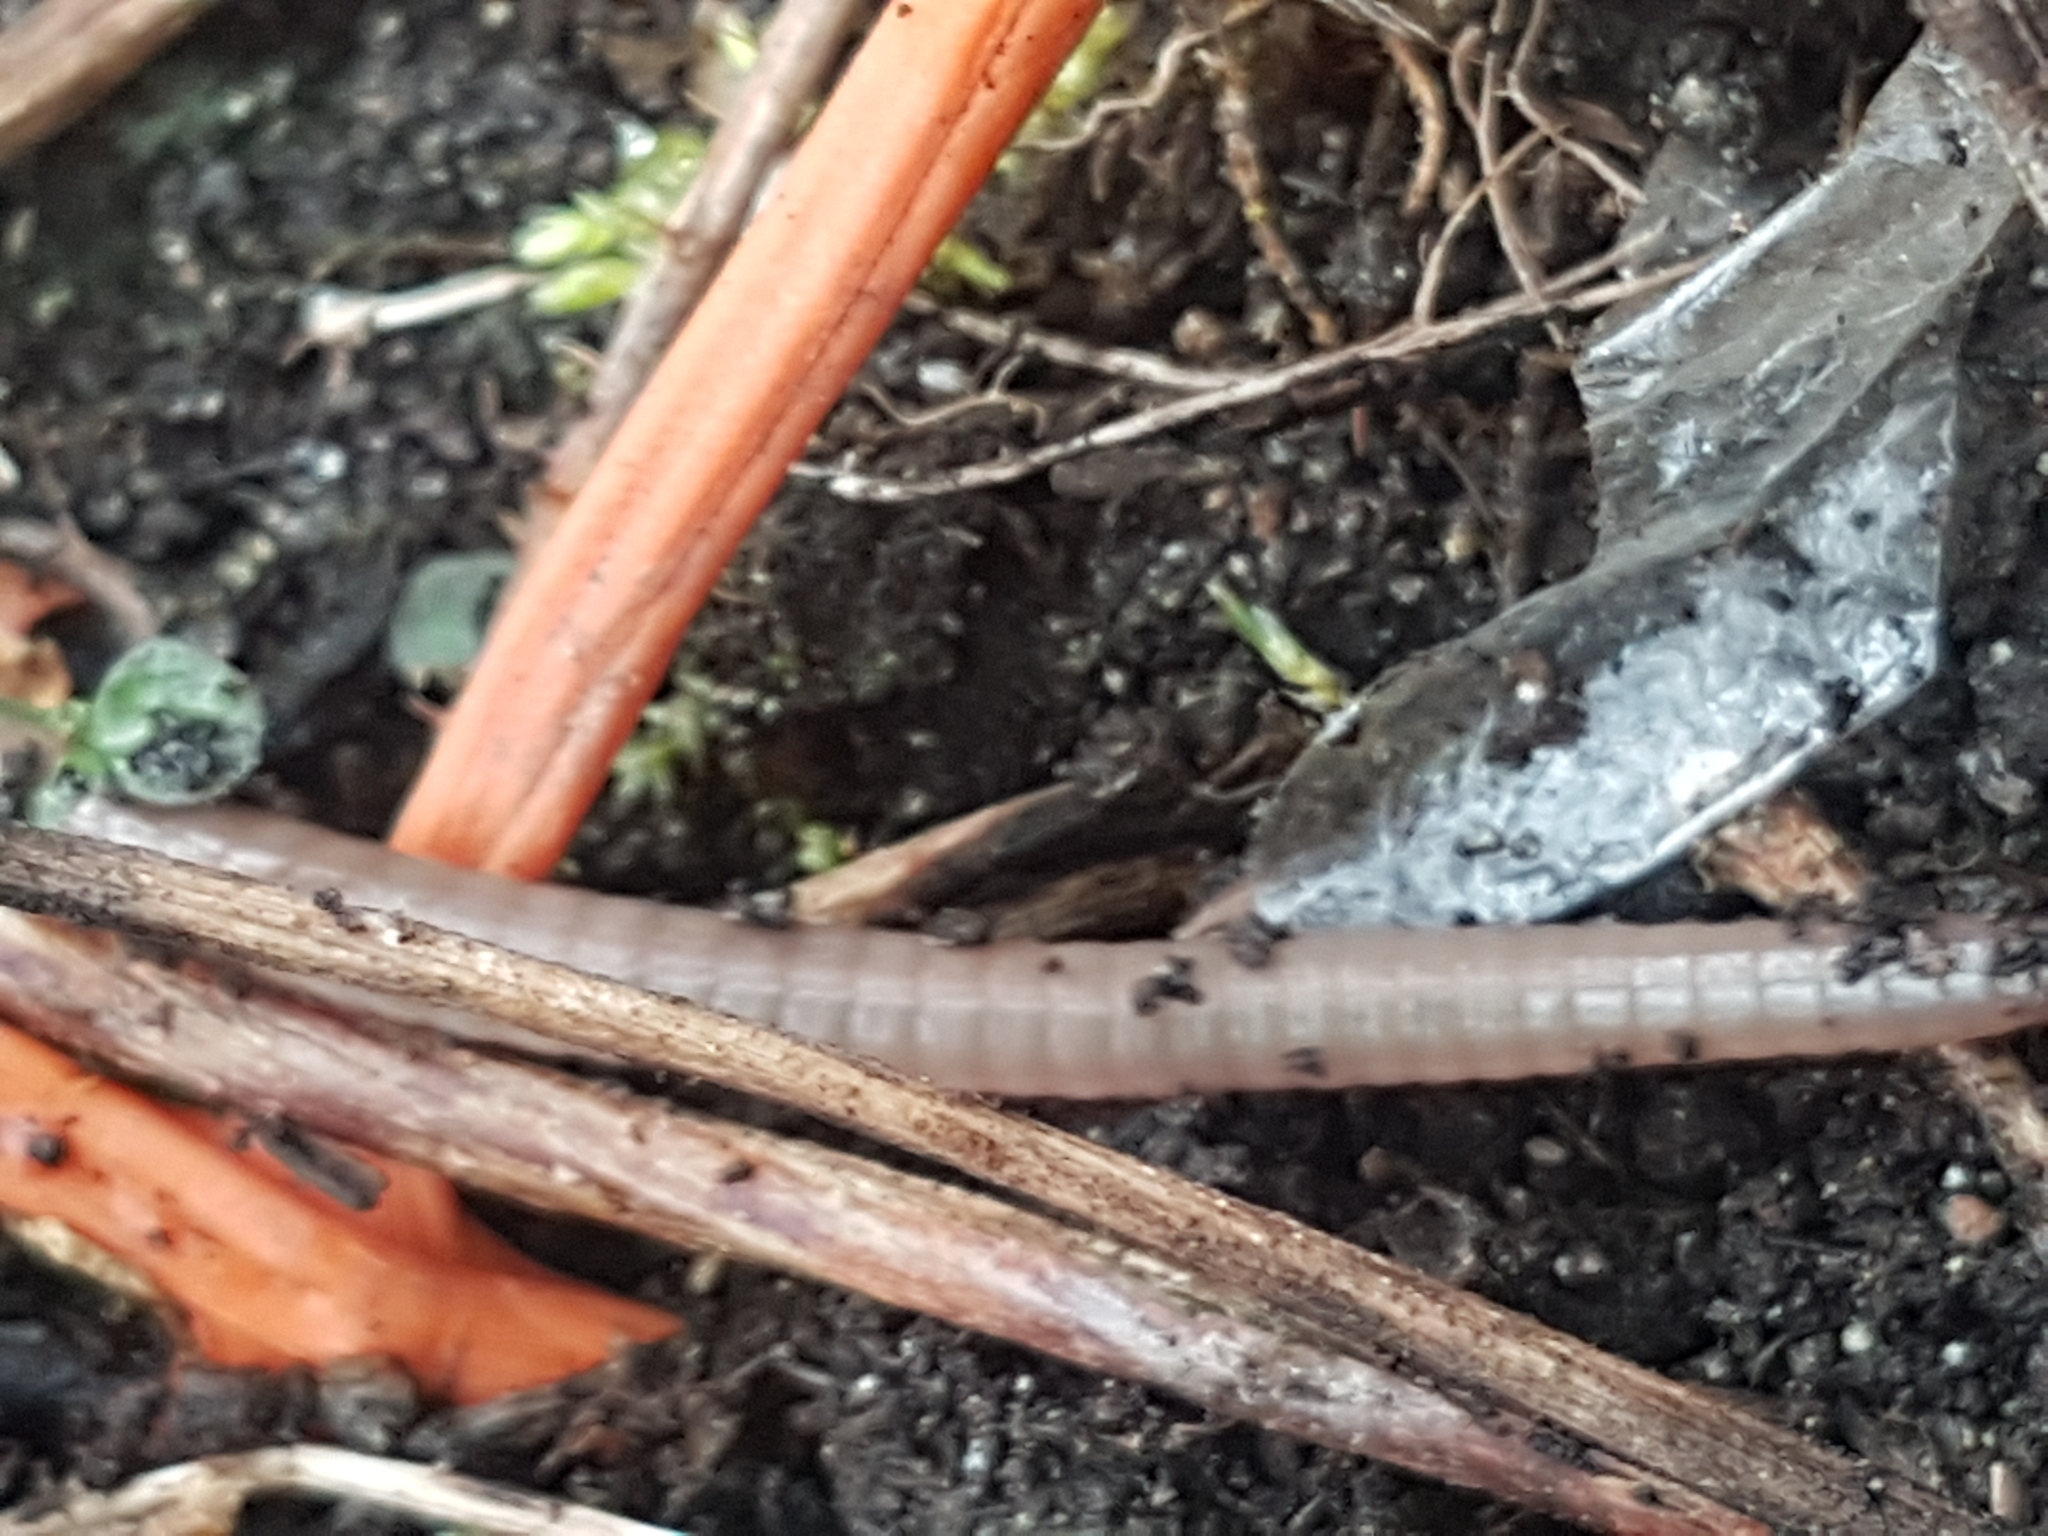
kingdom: Animalia
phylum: Annelida
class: Clitellata
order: Crassiclitellata
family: Lumbricidae
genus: Lumbricus
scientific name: Lumbricus terrestris
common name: Common earthworm
